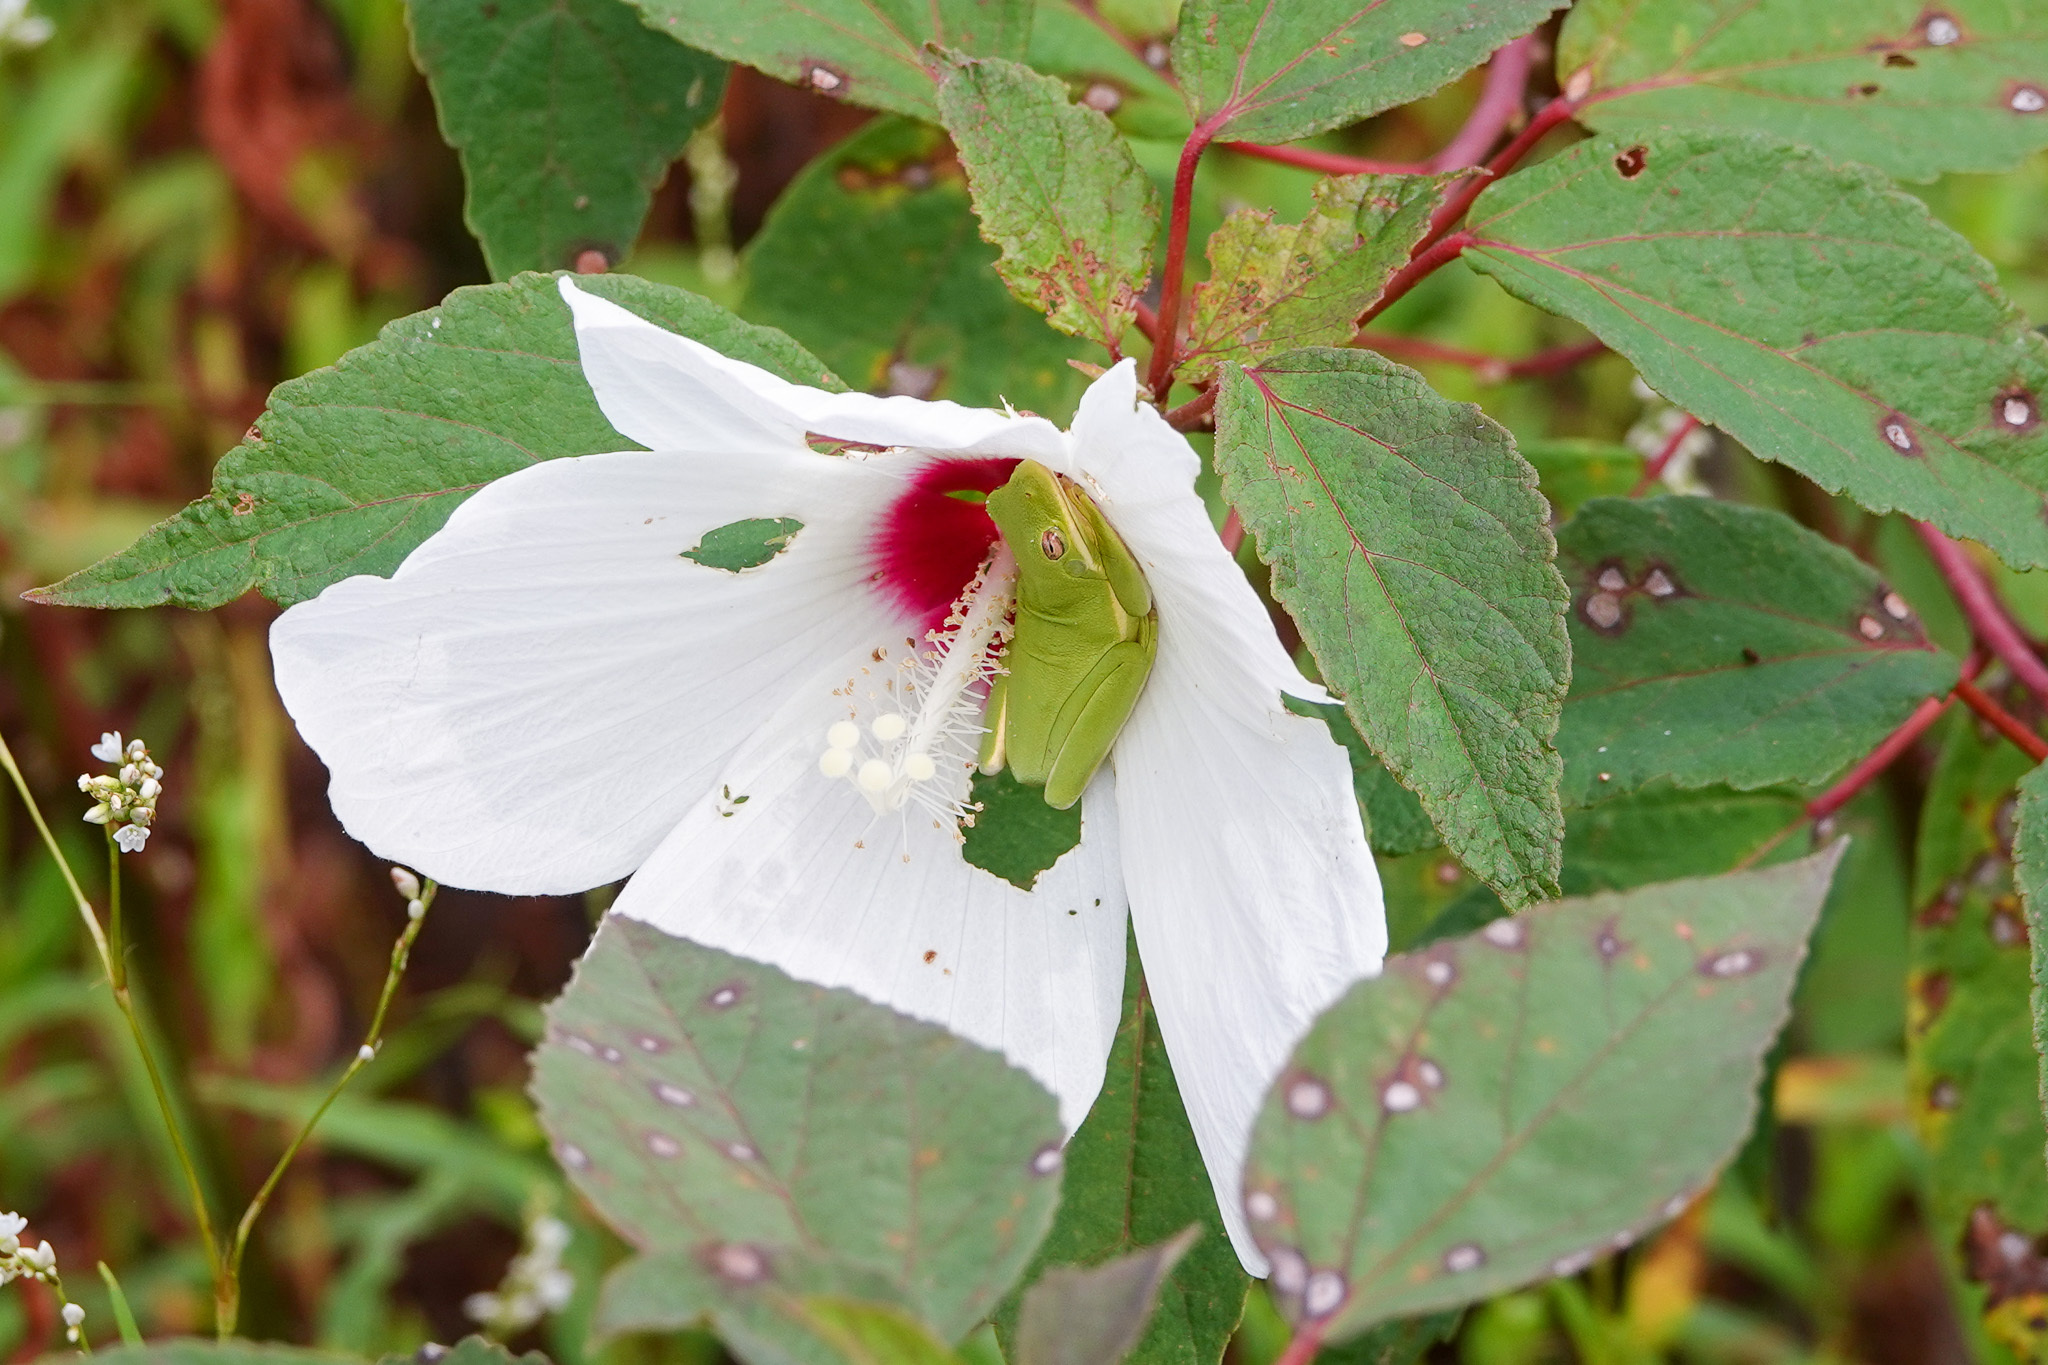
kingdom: Plantae
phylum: Tracheophyta
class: Magnoliopsida
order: Malvales
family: Malvaceae
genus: Hibiscus
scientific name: Hibiscus moscheutos
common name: Common rose-mallow
